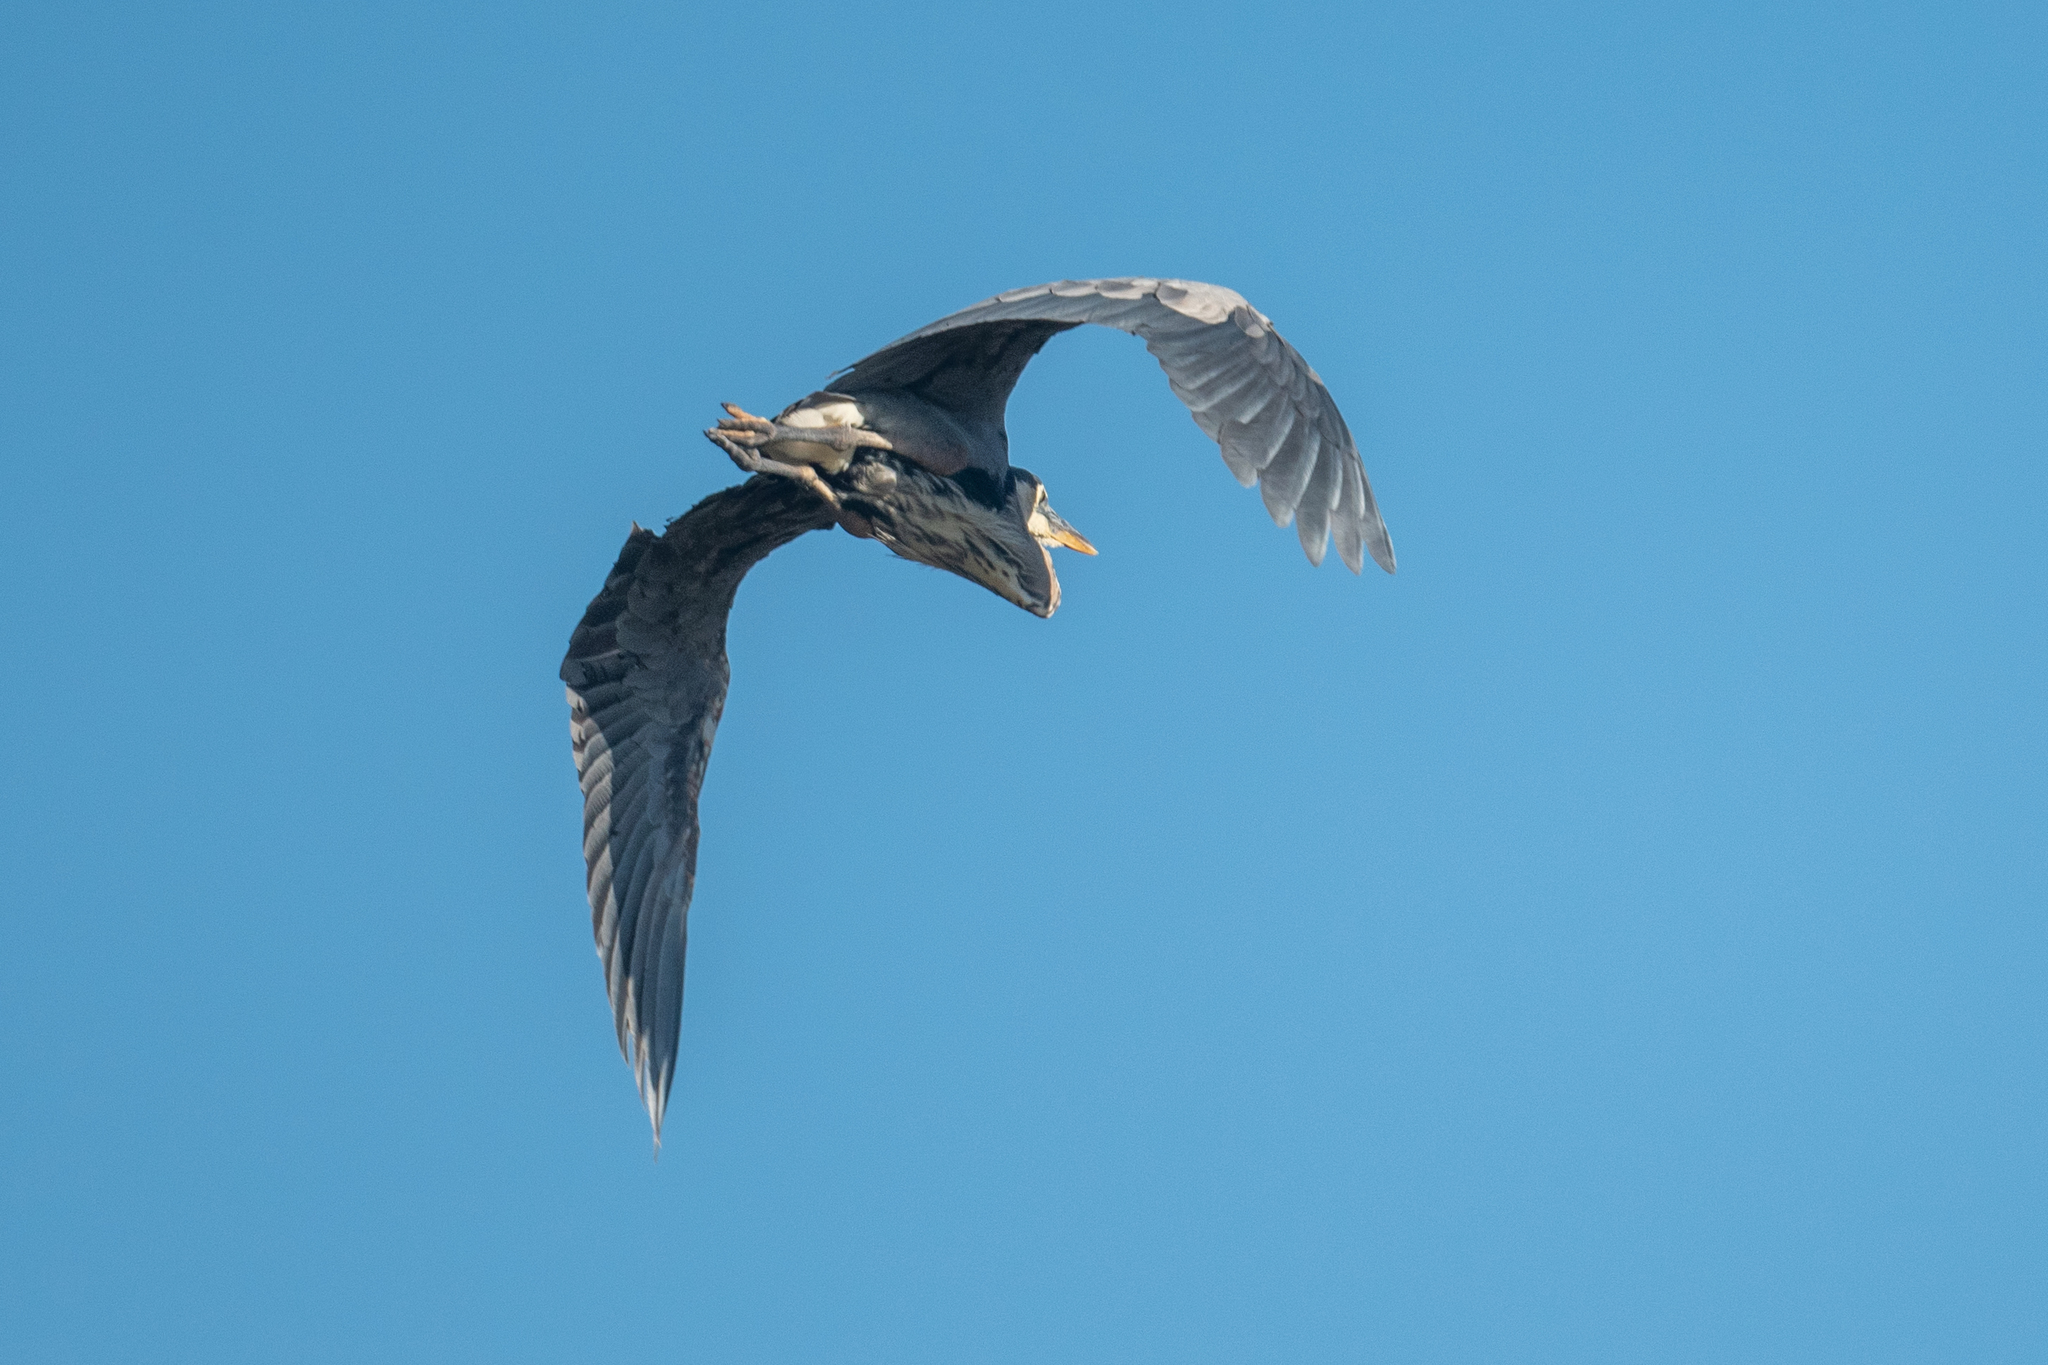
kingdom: Animalia
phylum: Chordata
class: Aves
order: Pelecaniformes
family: Ardeidae
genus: Ardea
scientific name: Ardea herodias
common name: Great blue heron
